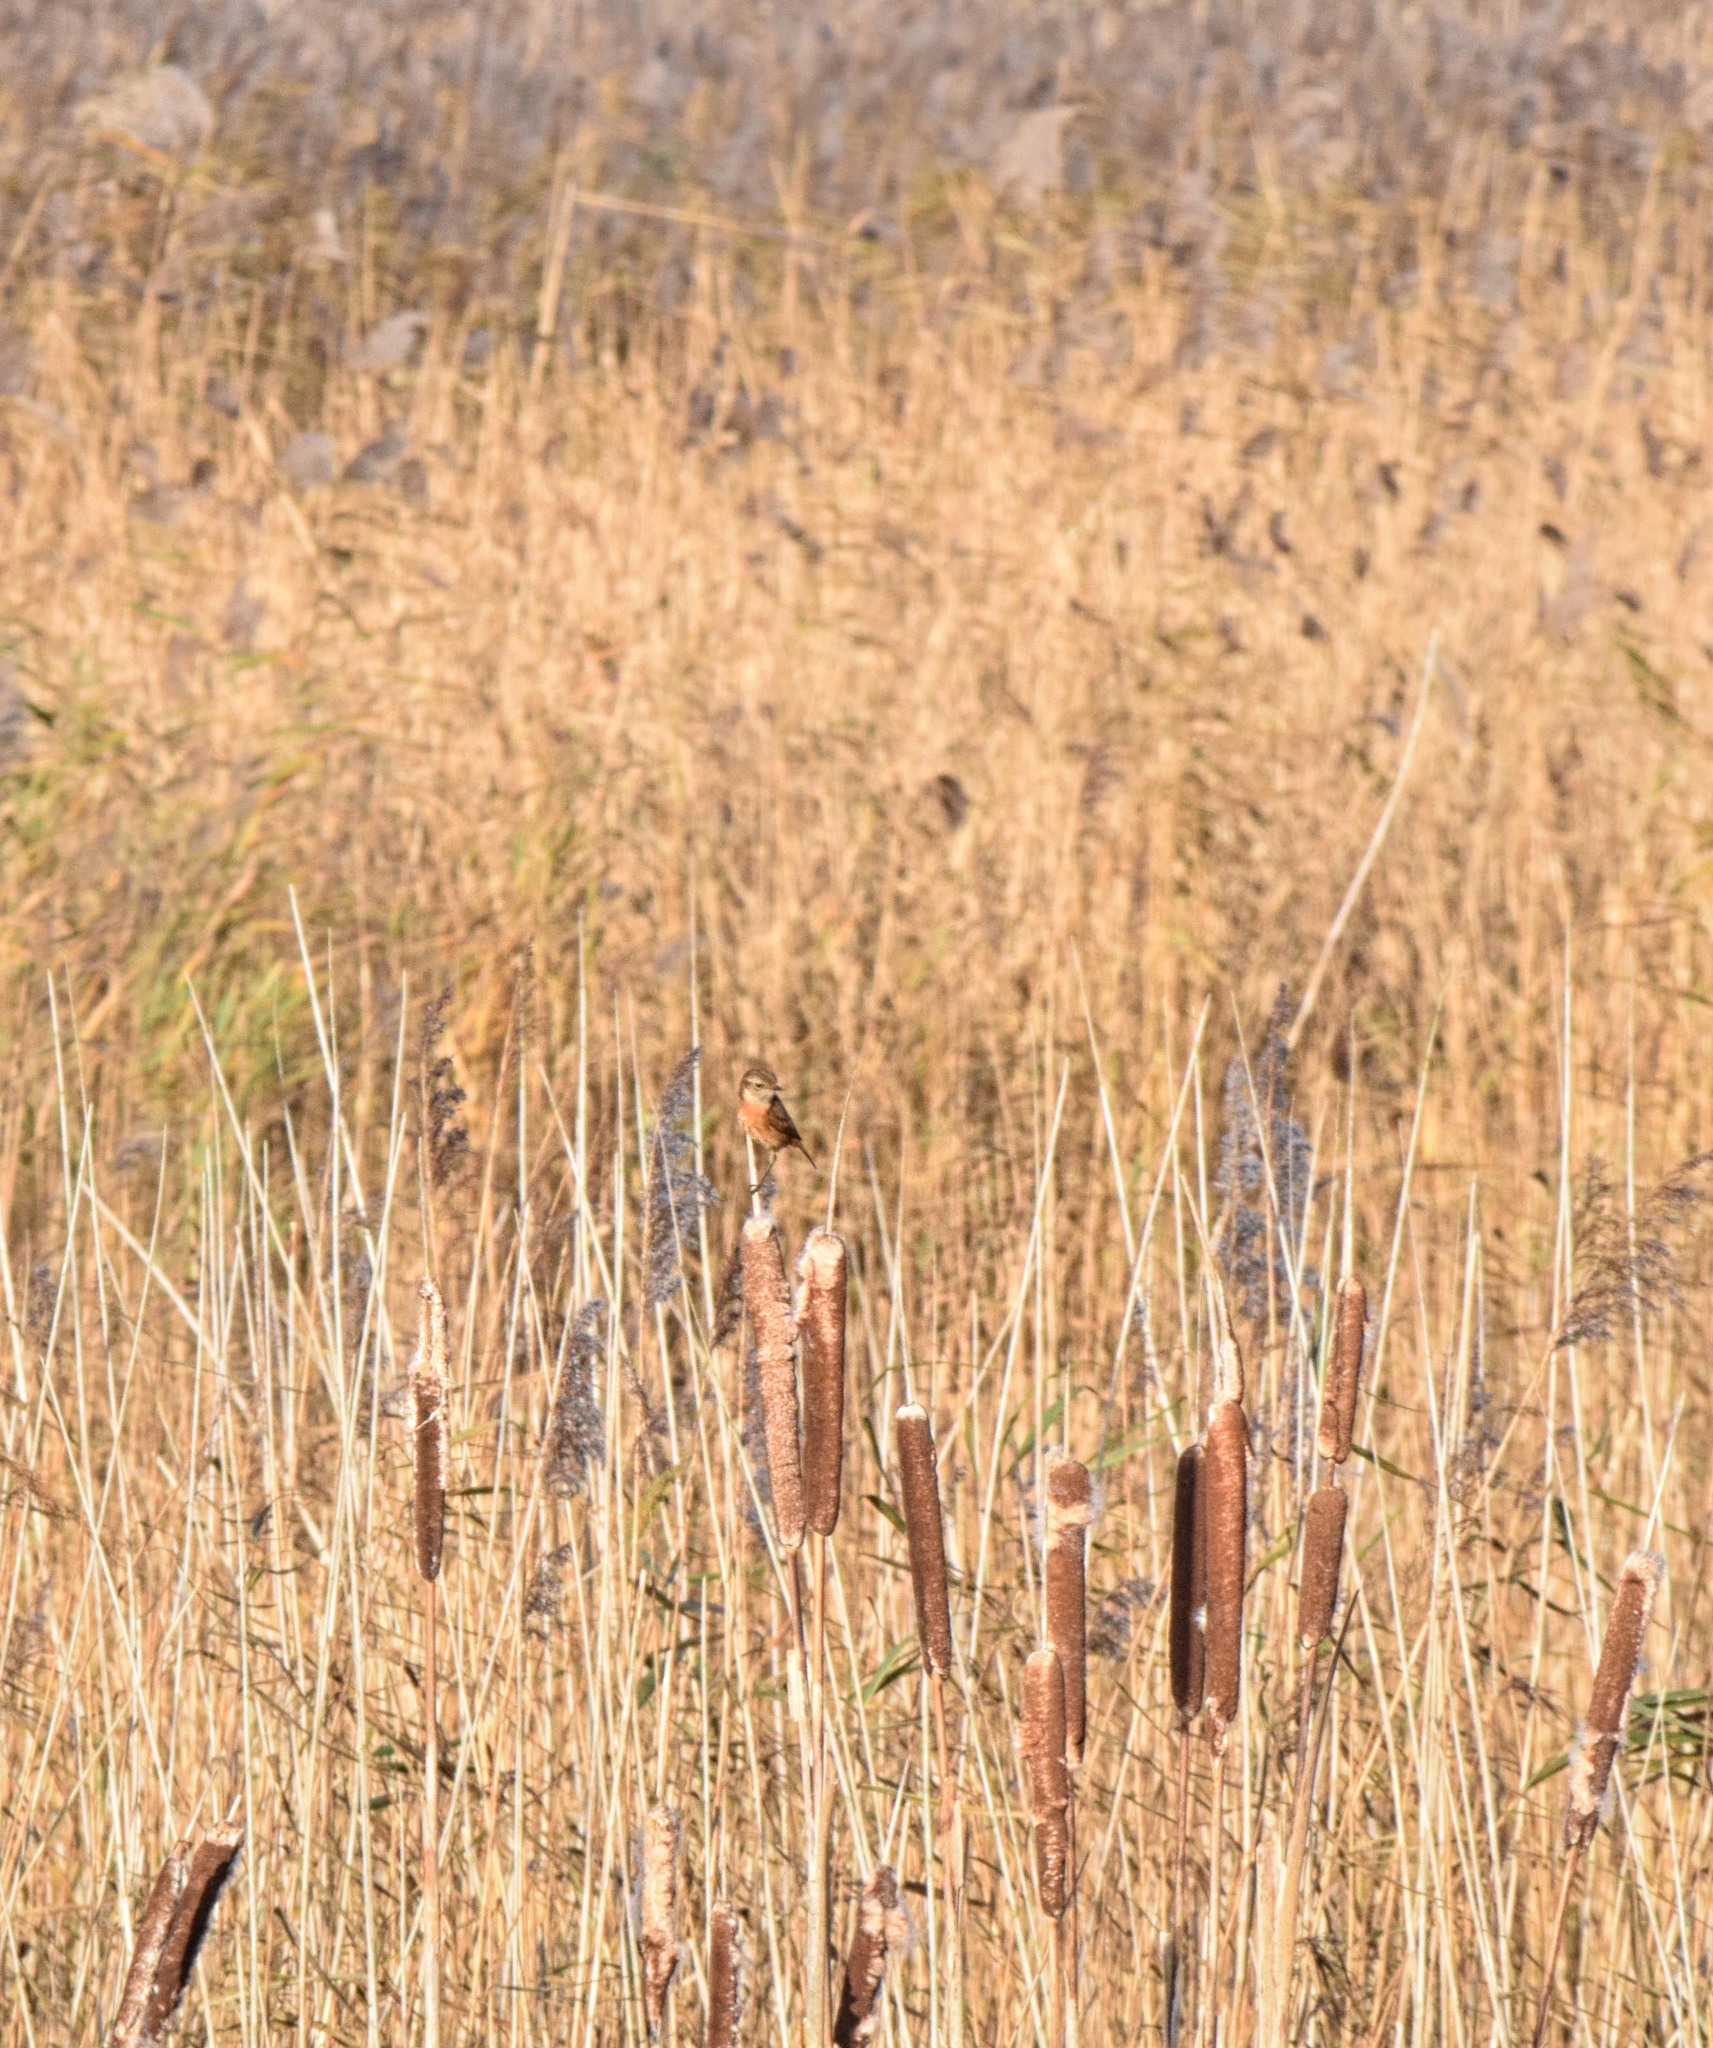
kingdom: Animalia
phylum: Chordata
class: Aves
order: Passeriformes
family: Muscicapidae
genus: Saxicola
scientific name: Saxicola rubicola
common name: European stonechat
